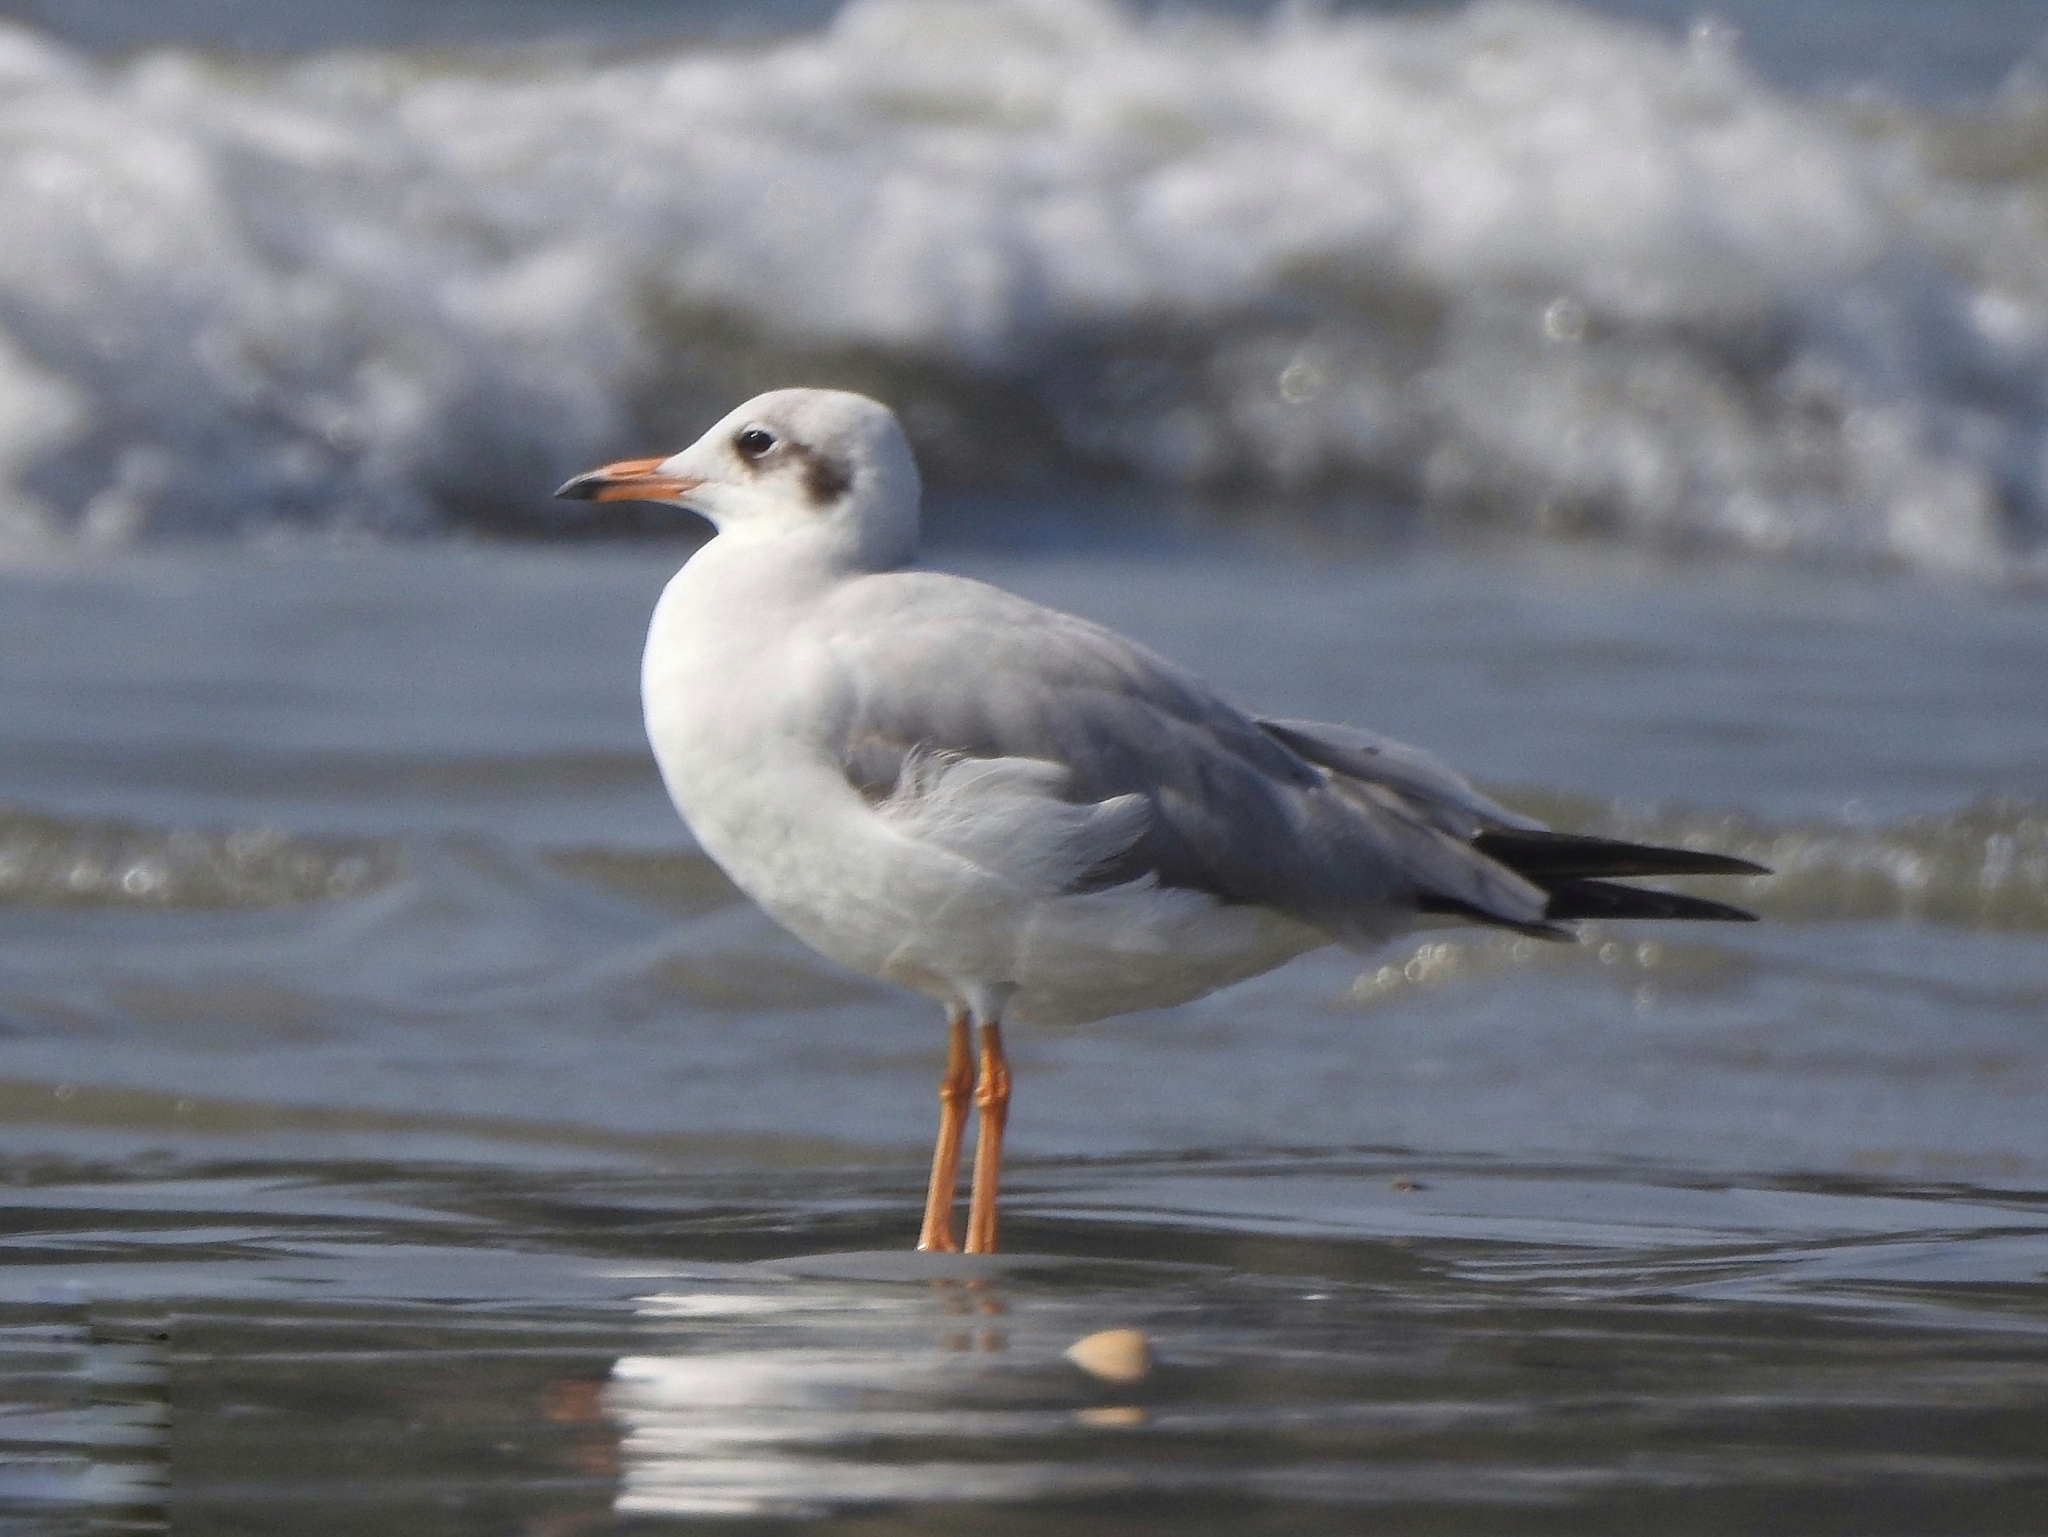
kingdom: Animalia
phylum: Chordata
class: Aves
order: Charadriiformes
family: Laridae
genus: Chroicocephalus
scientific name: Chroicocephalus brunnicephalus
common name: Brown-headed gull
